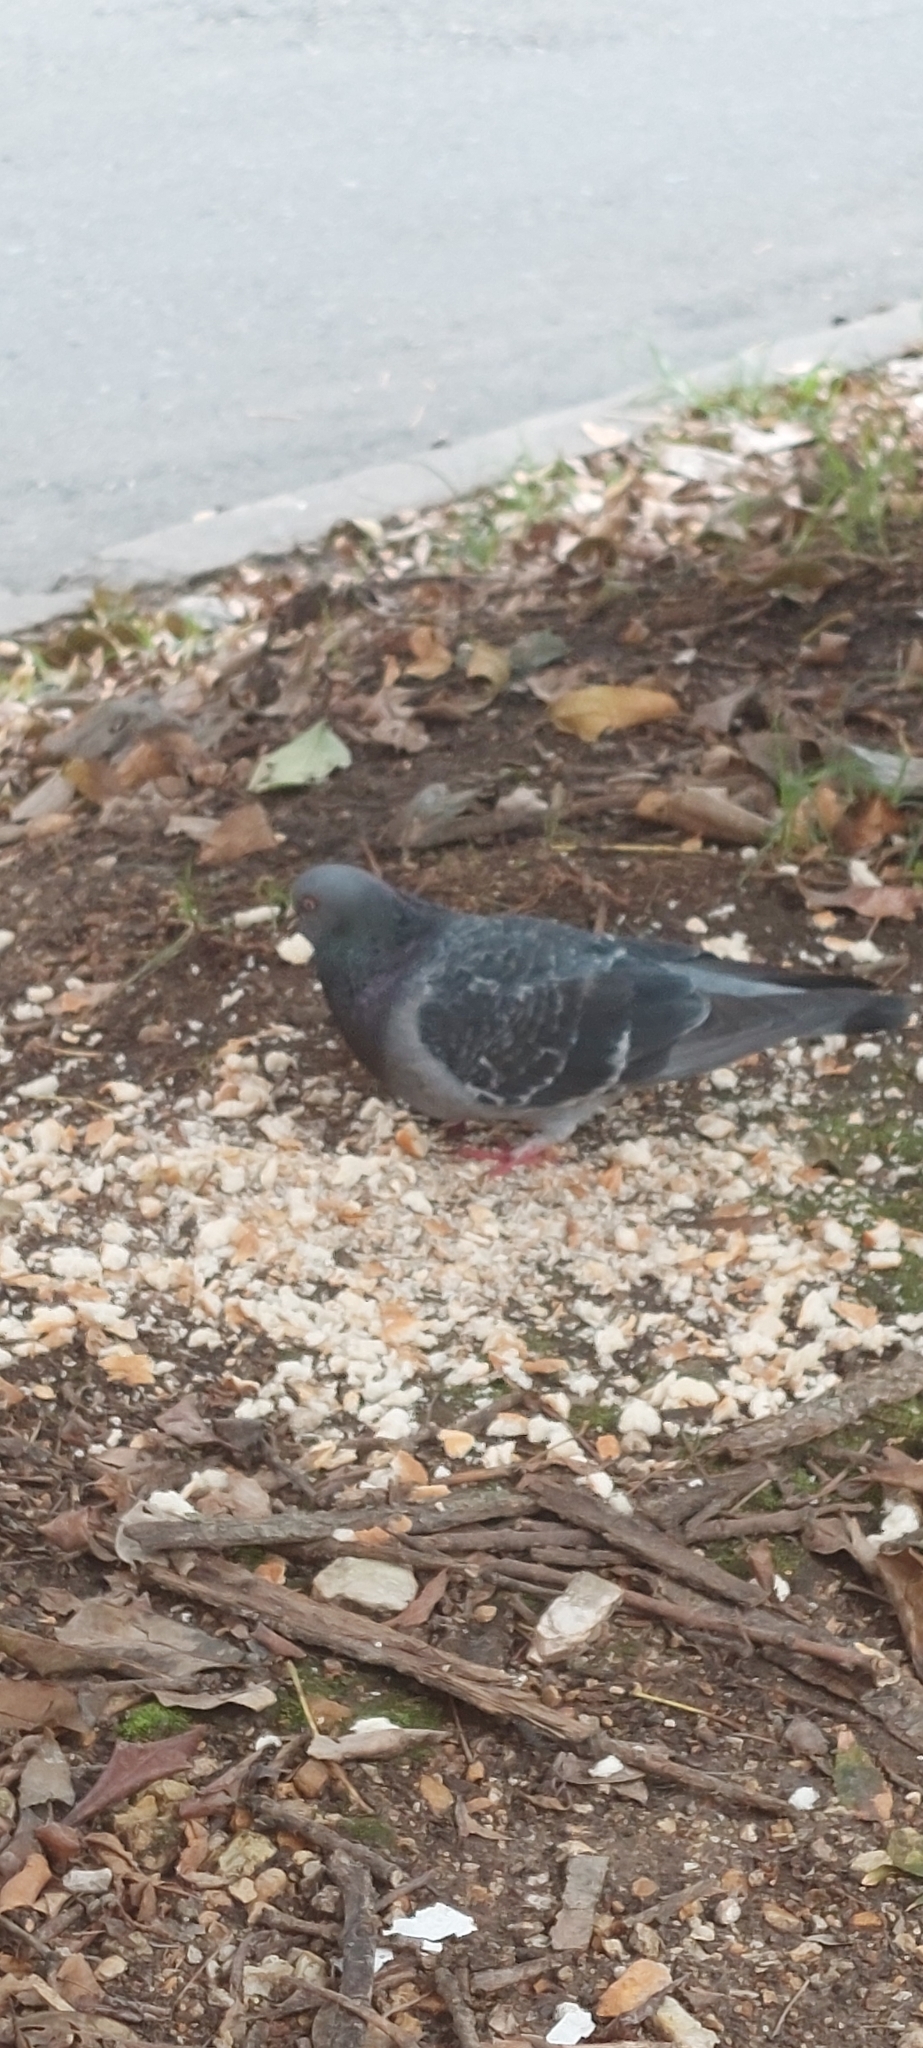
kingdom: Animalia
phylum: Chordata
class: Aves
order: Columbiformes
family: Columbidae
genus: Columba
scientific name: Columba livia
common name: Rock pigeon
